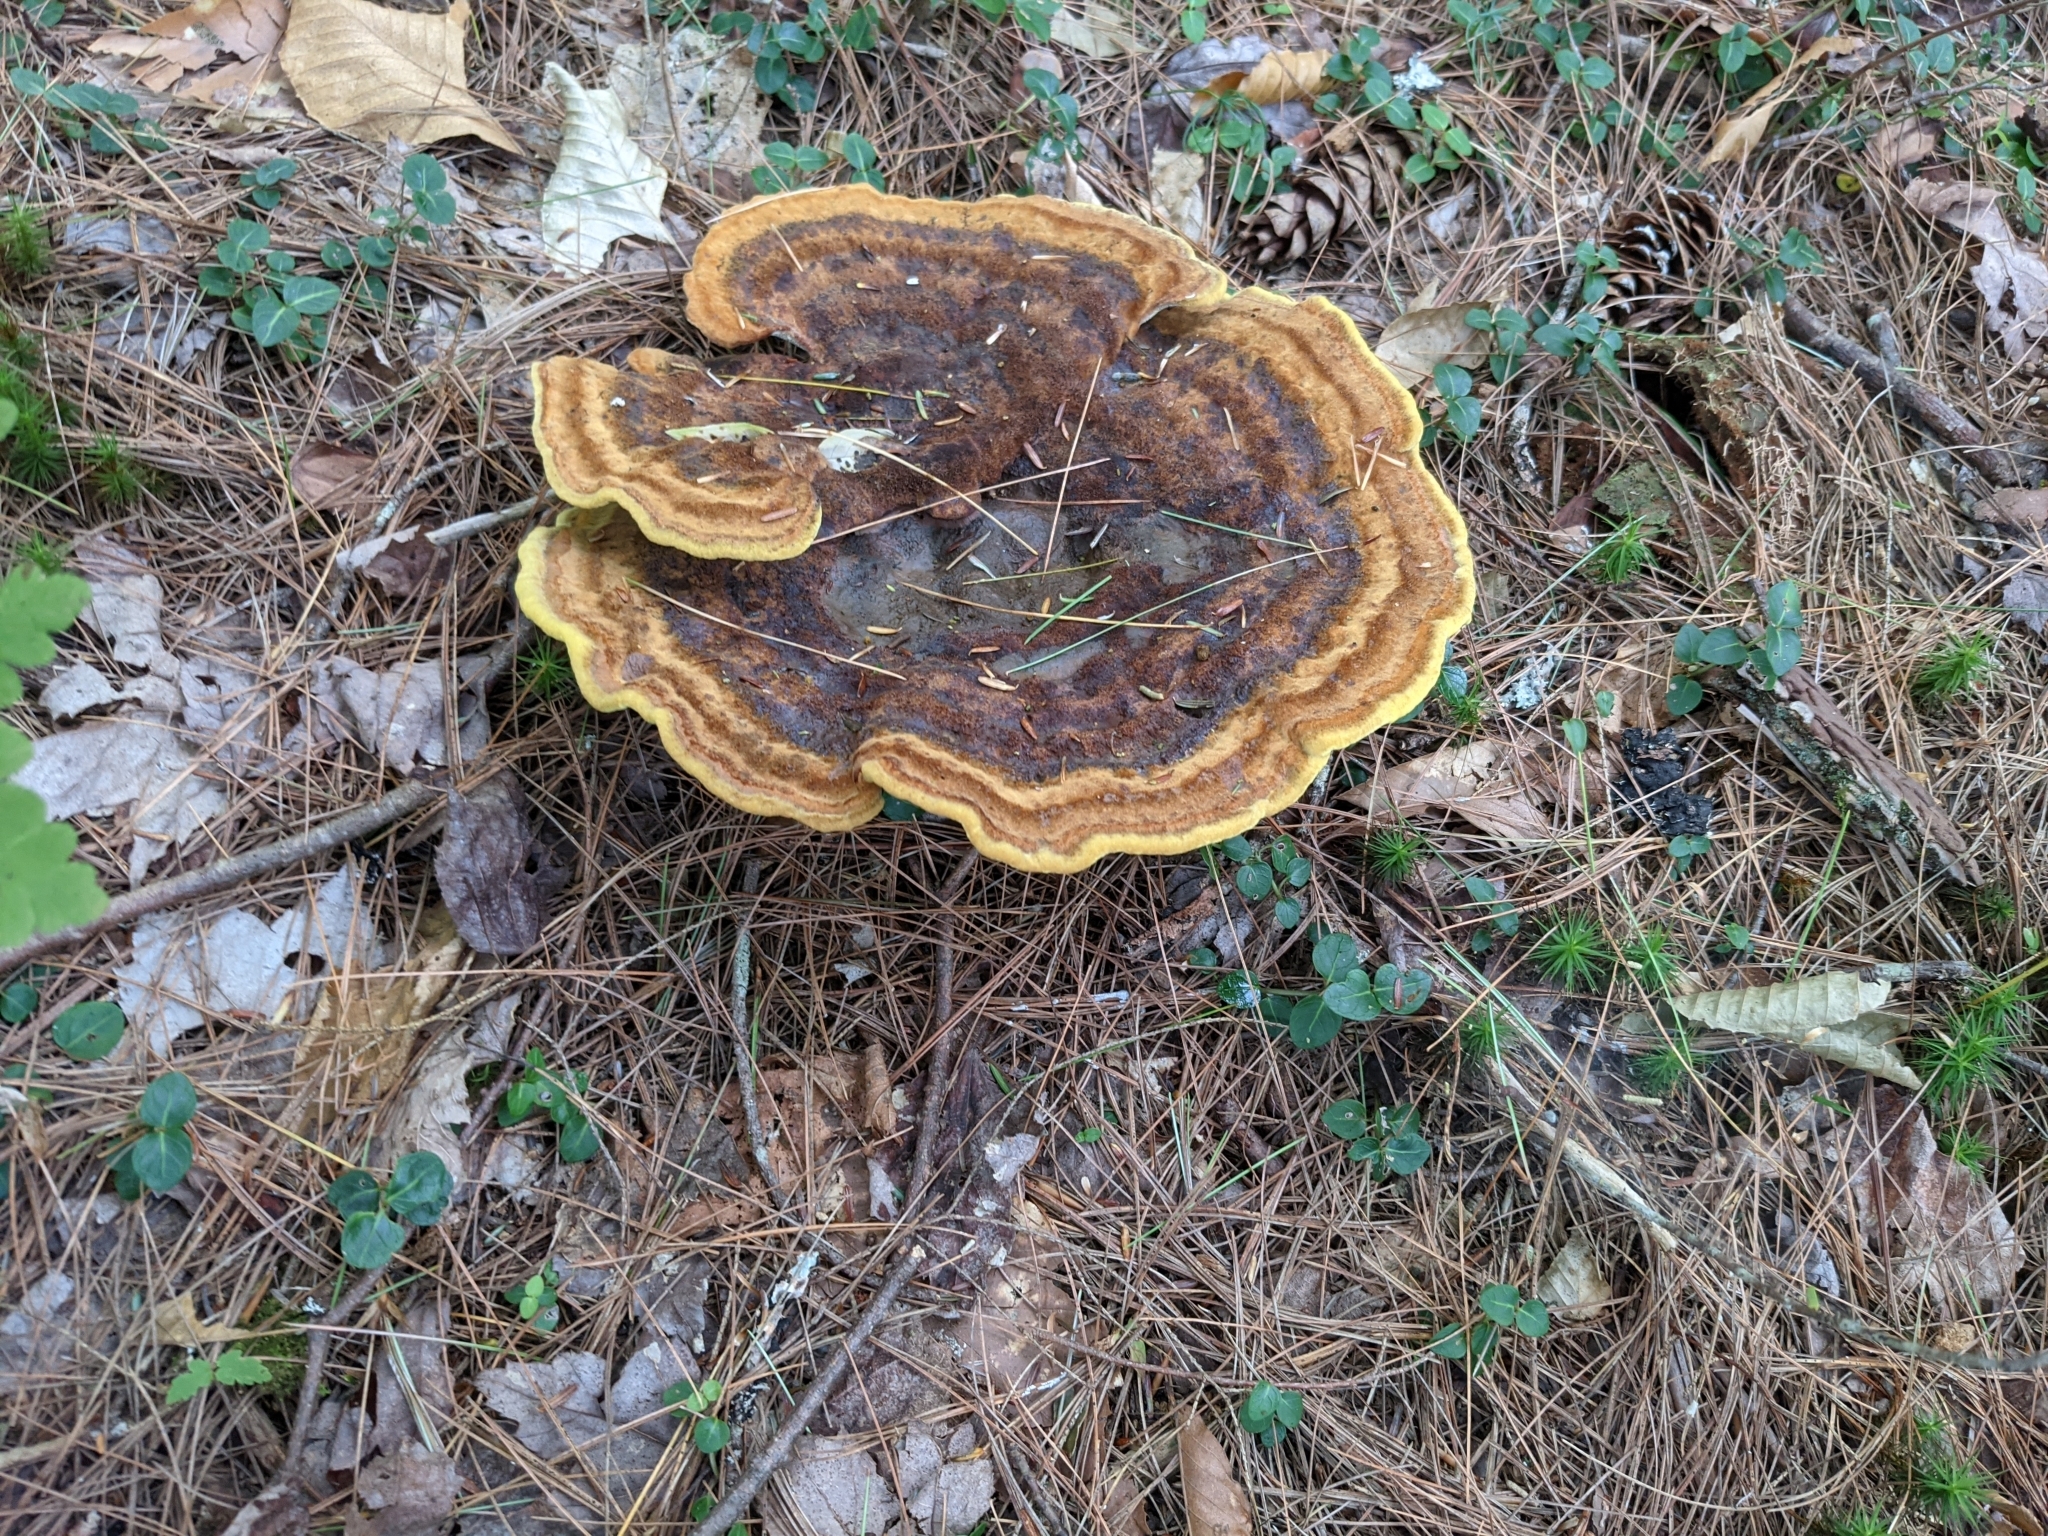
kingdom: Fungi
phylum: Basidiomycota
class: Agaricomycetes
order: Polyporales
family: Laetiporaceae
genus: Phaeolus
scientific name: Phaeolus schweinitzii
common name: Dyer's mazegill
